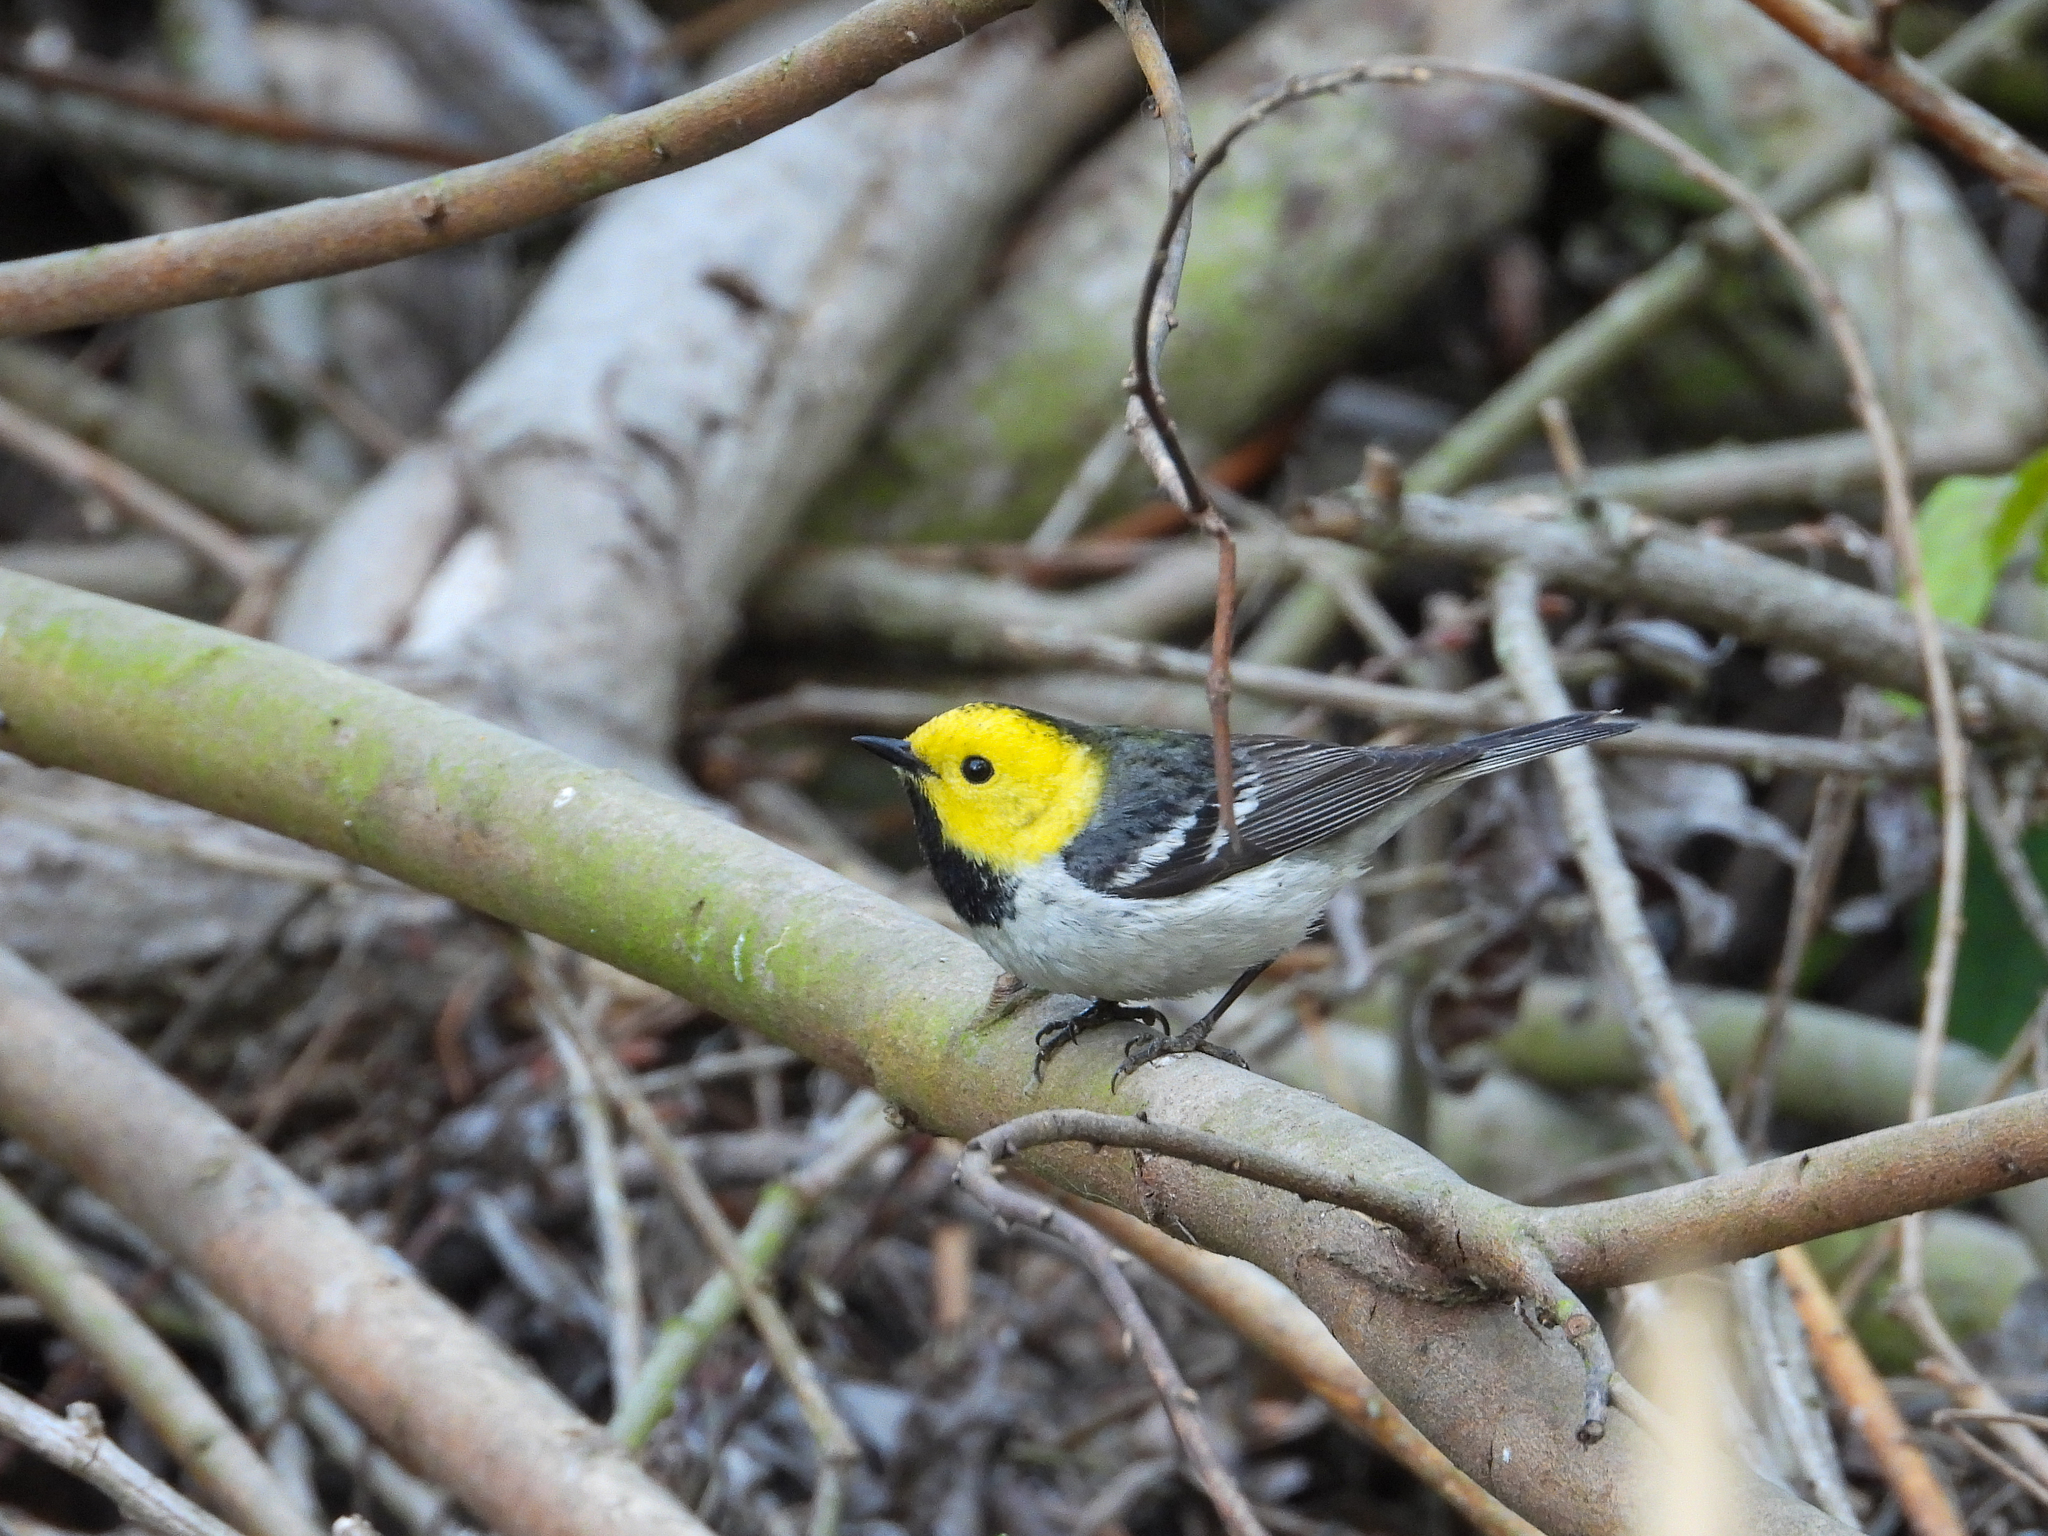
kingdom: Animalia
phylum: Chordata
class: Aves
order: Passeriformes
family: Parulidae
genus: Setophaga
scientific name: Setophaga occidentalis
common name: Hermit warbler
